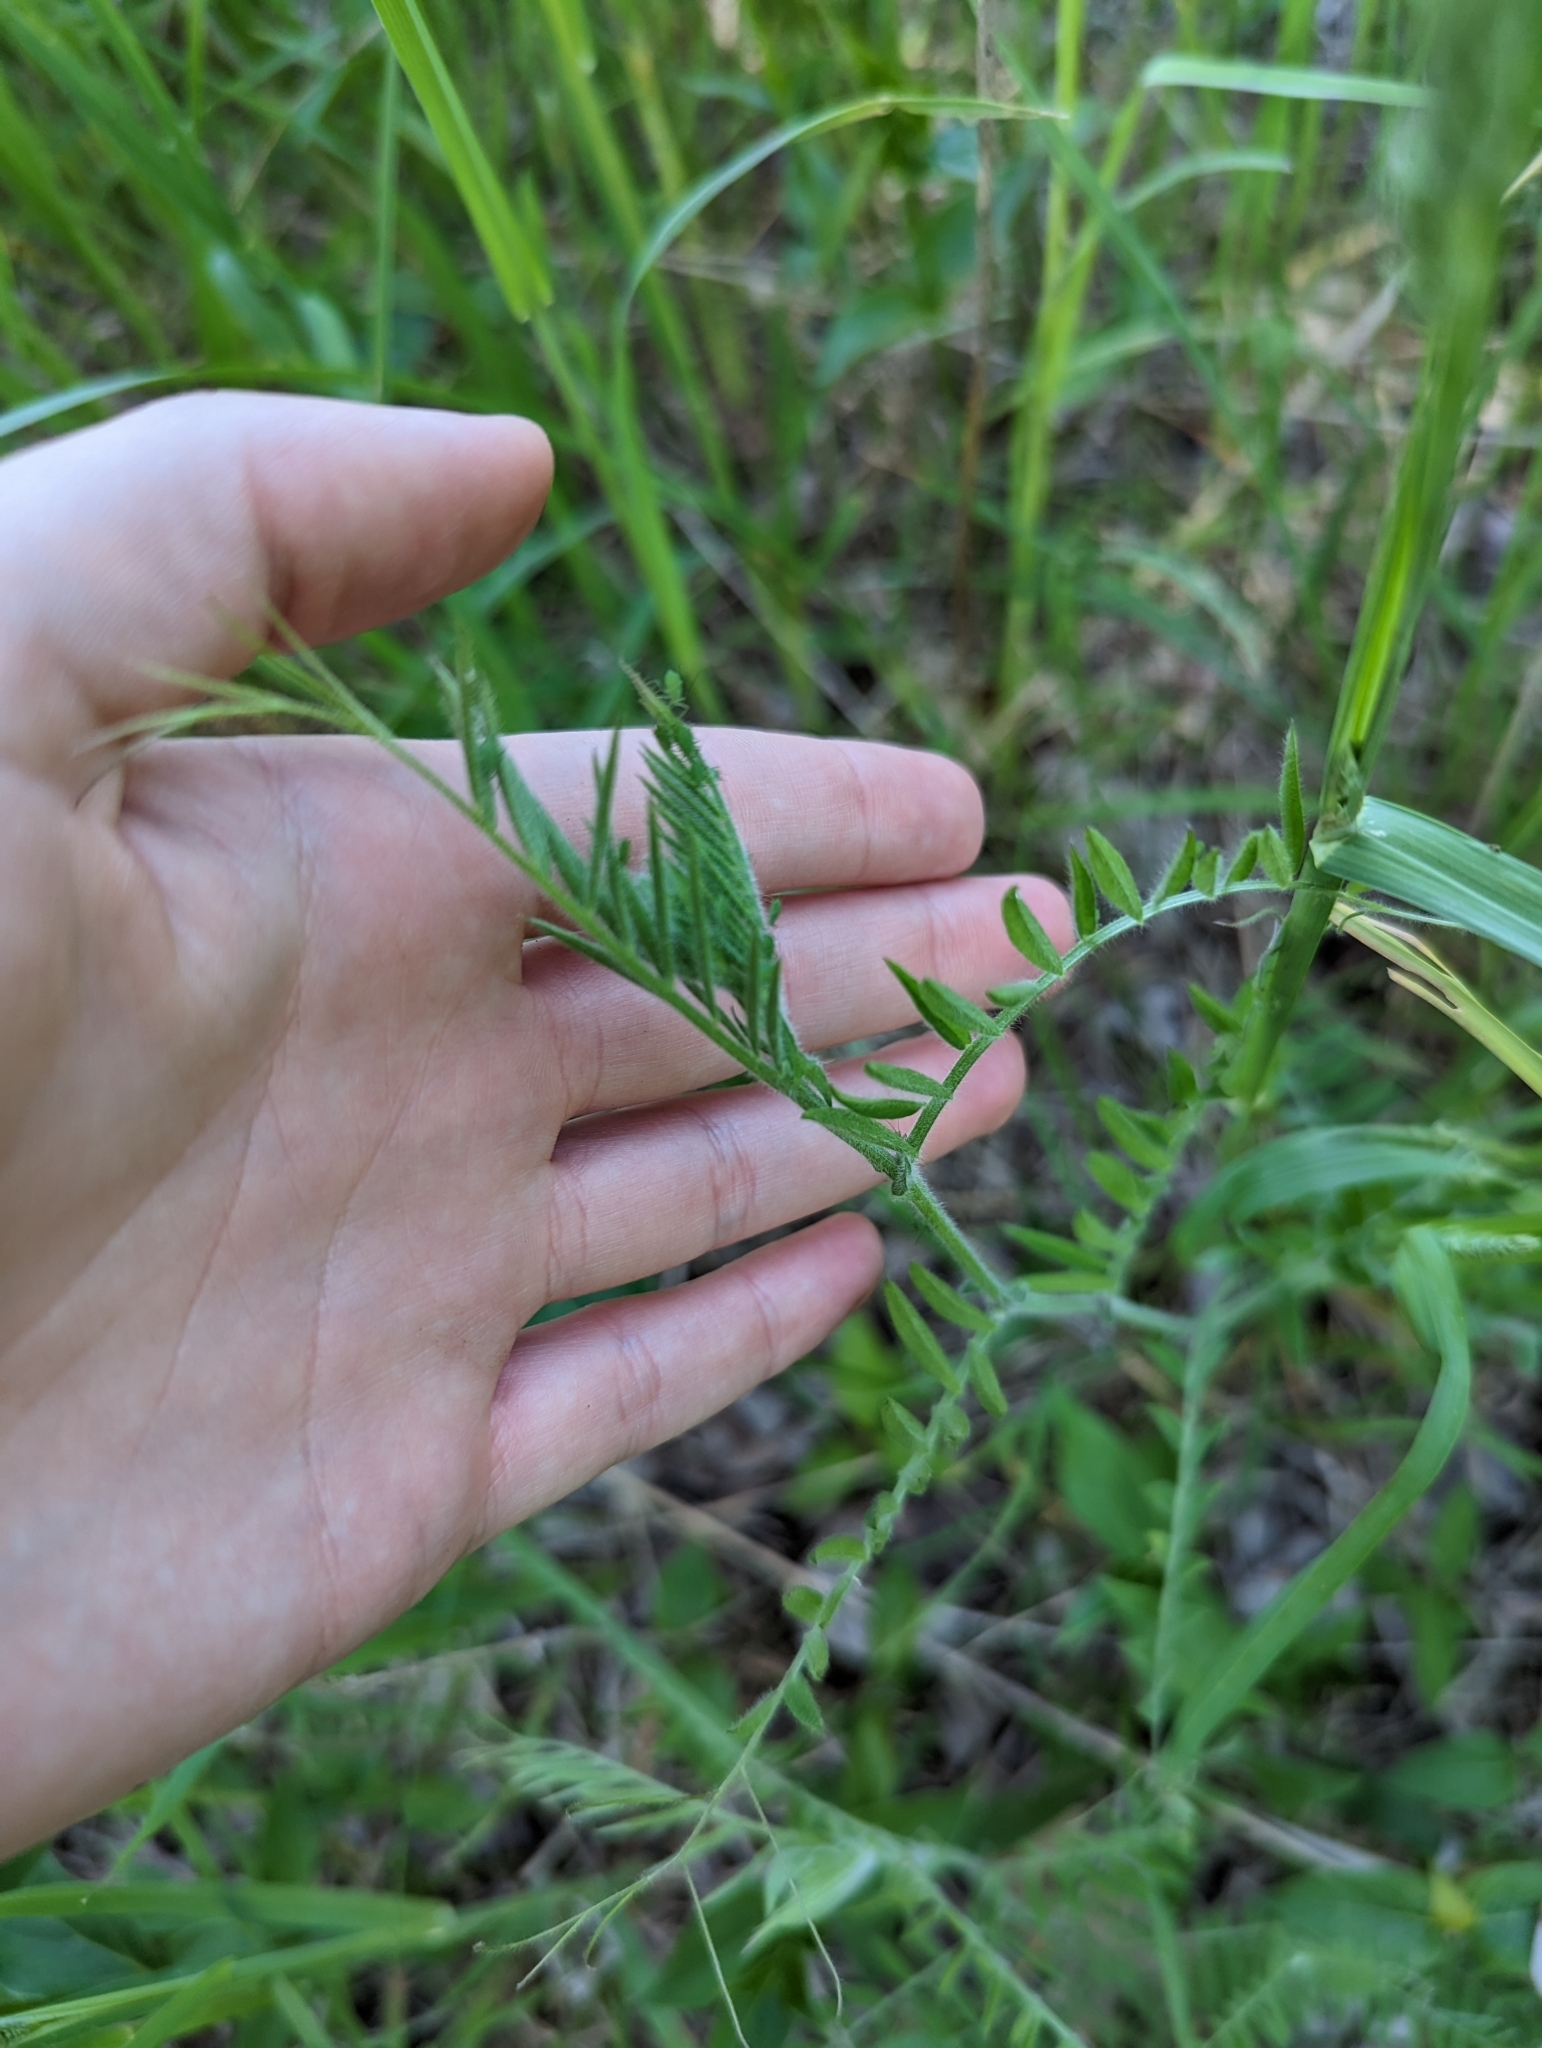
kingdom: Plantae
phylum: Tracheophyta
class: Magnoliopsida
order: Fabales
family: Fabaceae
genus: Vicia
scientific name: Vicia villosa
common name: Fodder vetch
